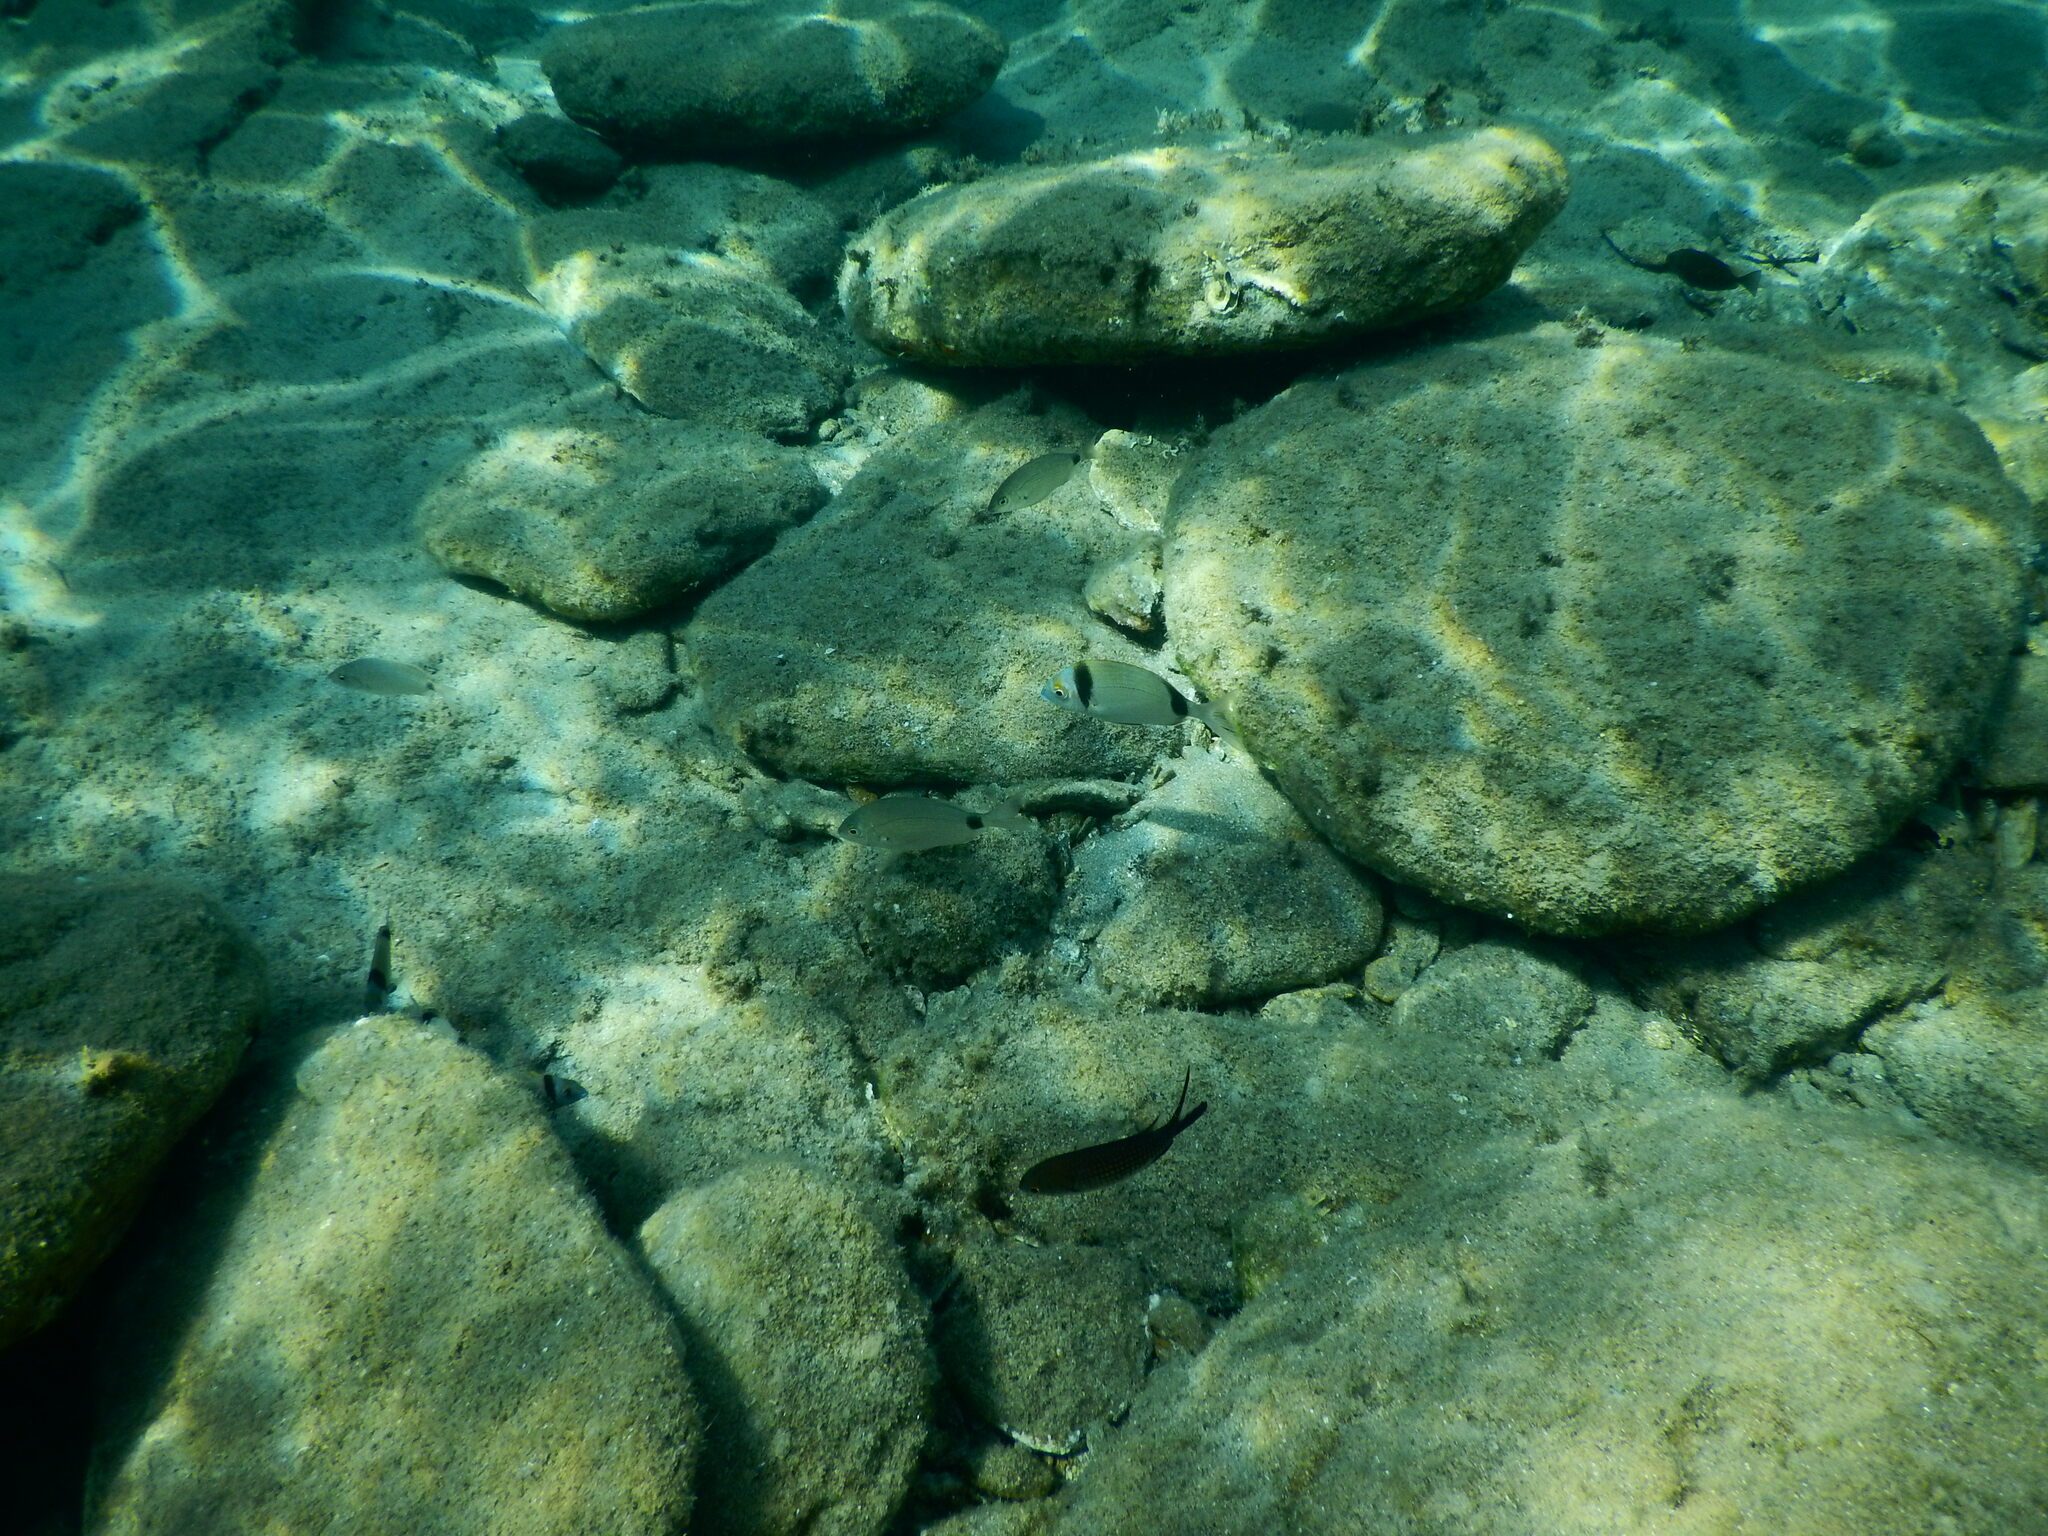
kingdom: Animalia
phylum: Chordata
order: Perciformes
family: Sparidae
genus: Diplodus
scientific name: Diplodus vulgaris
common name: Common two-banded seabream
